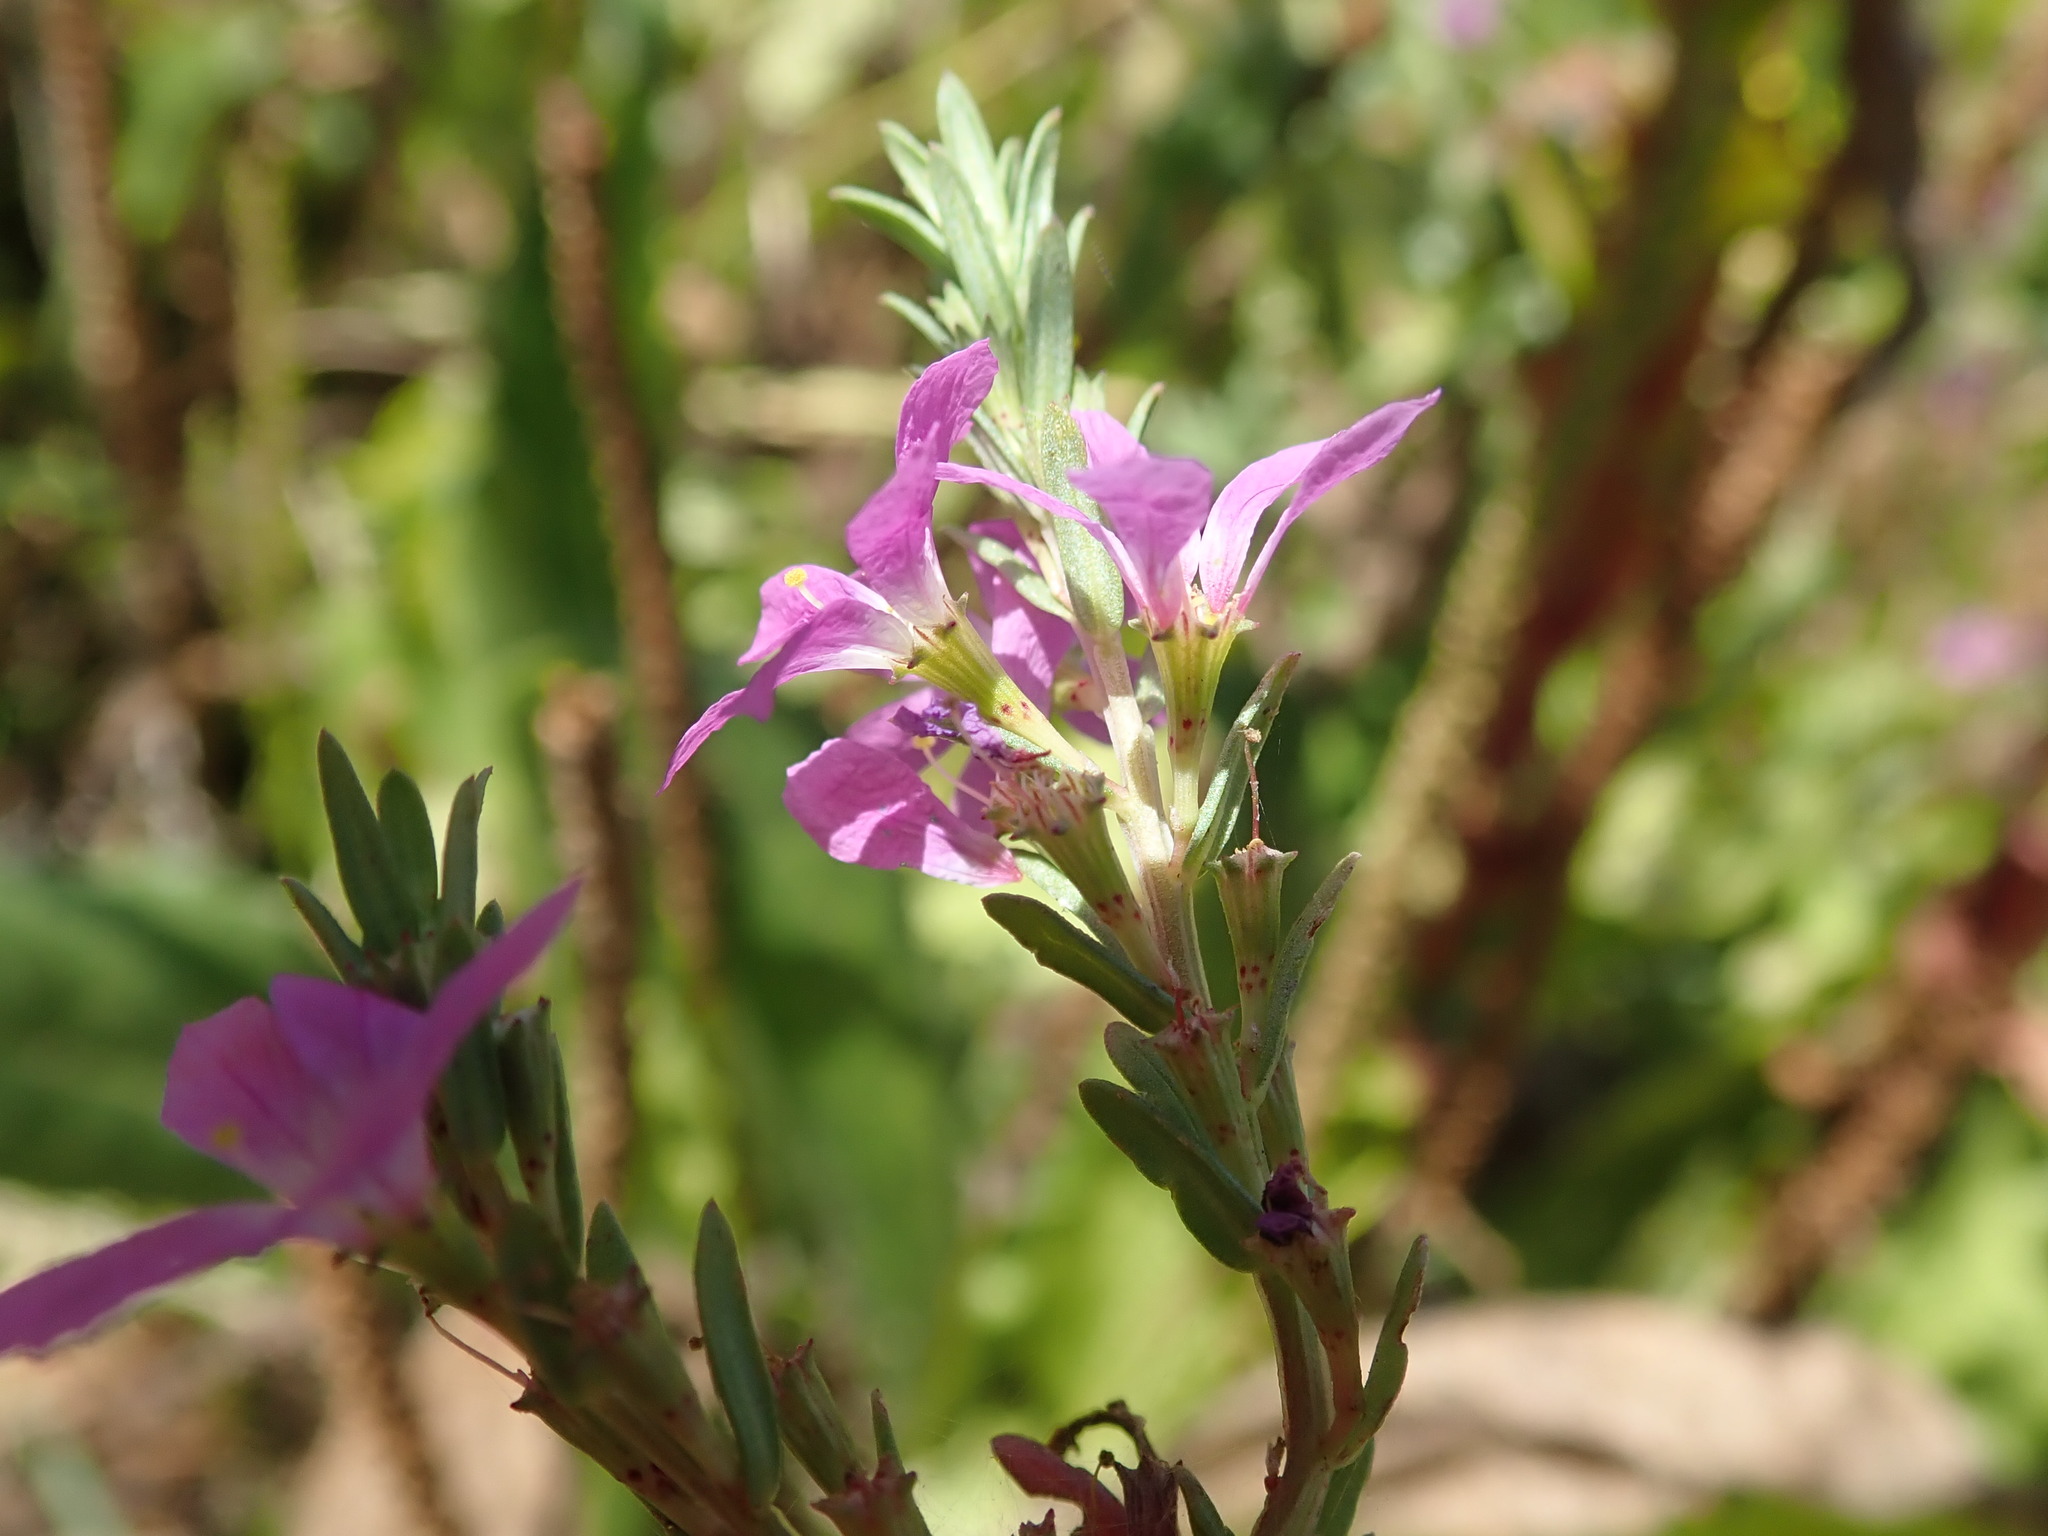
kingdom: Plantae
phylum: Tracheophyta
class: Magnoliopsida
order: Myrtales
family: Lythraceae
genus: Lythrum
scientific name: Lythrum junceum
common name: False grass-poly
